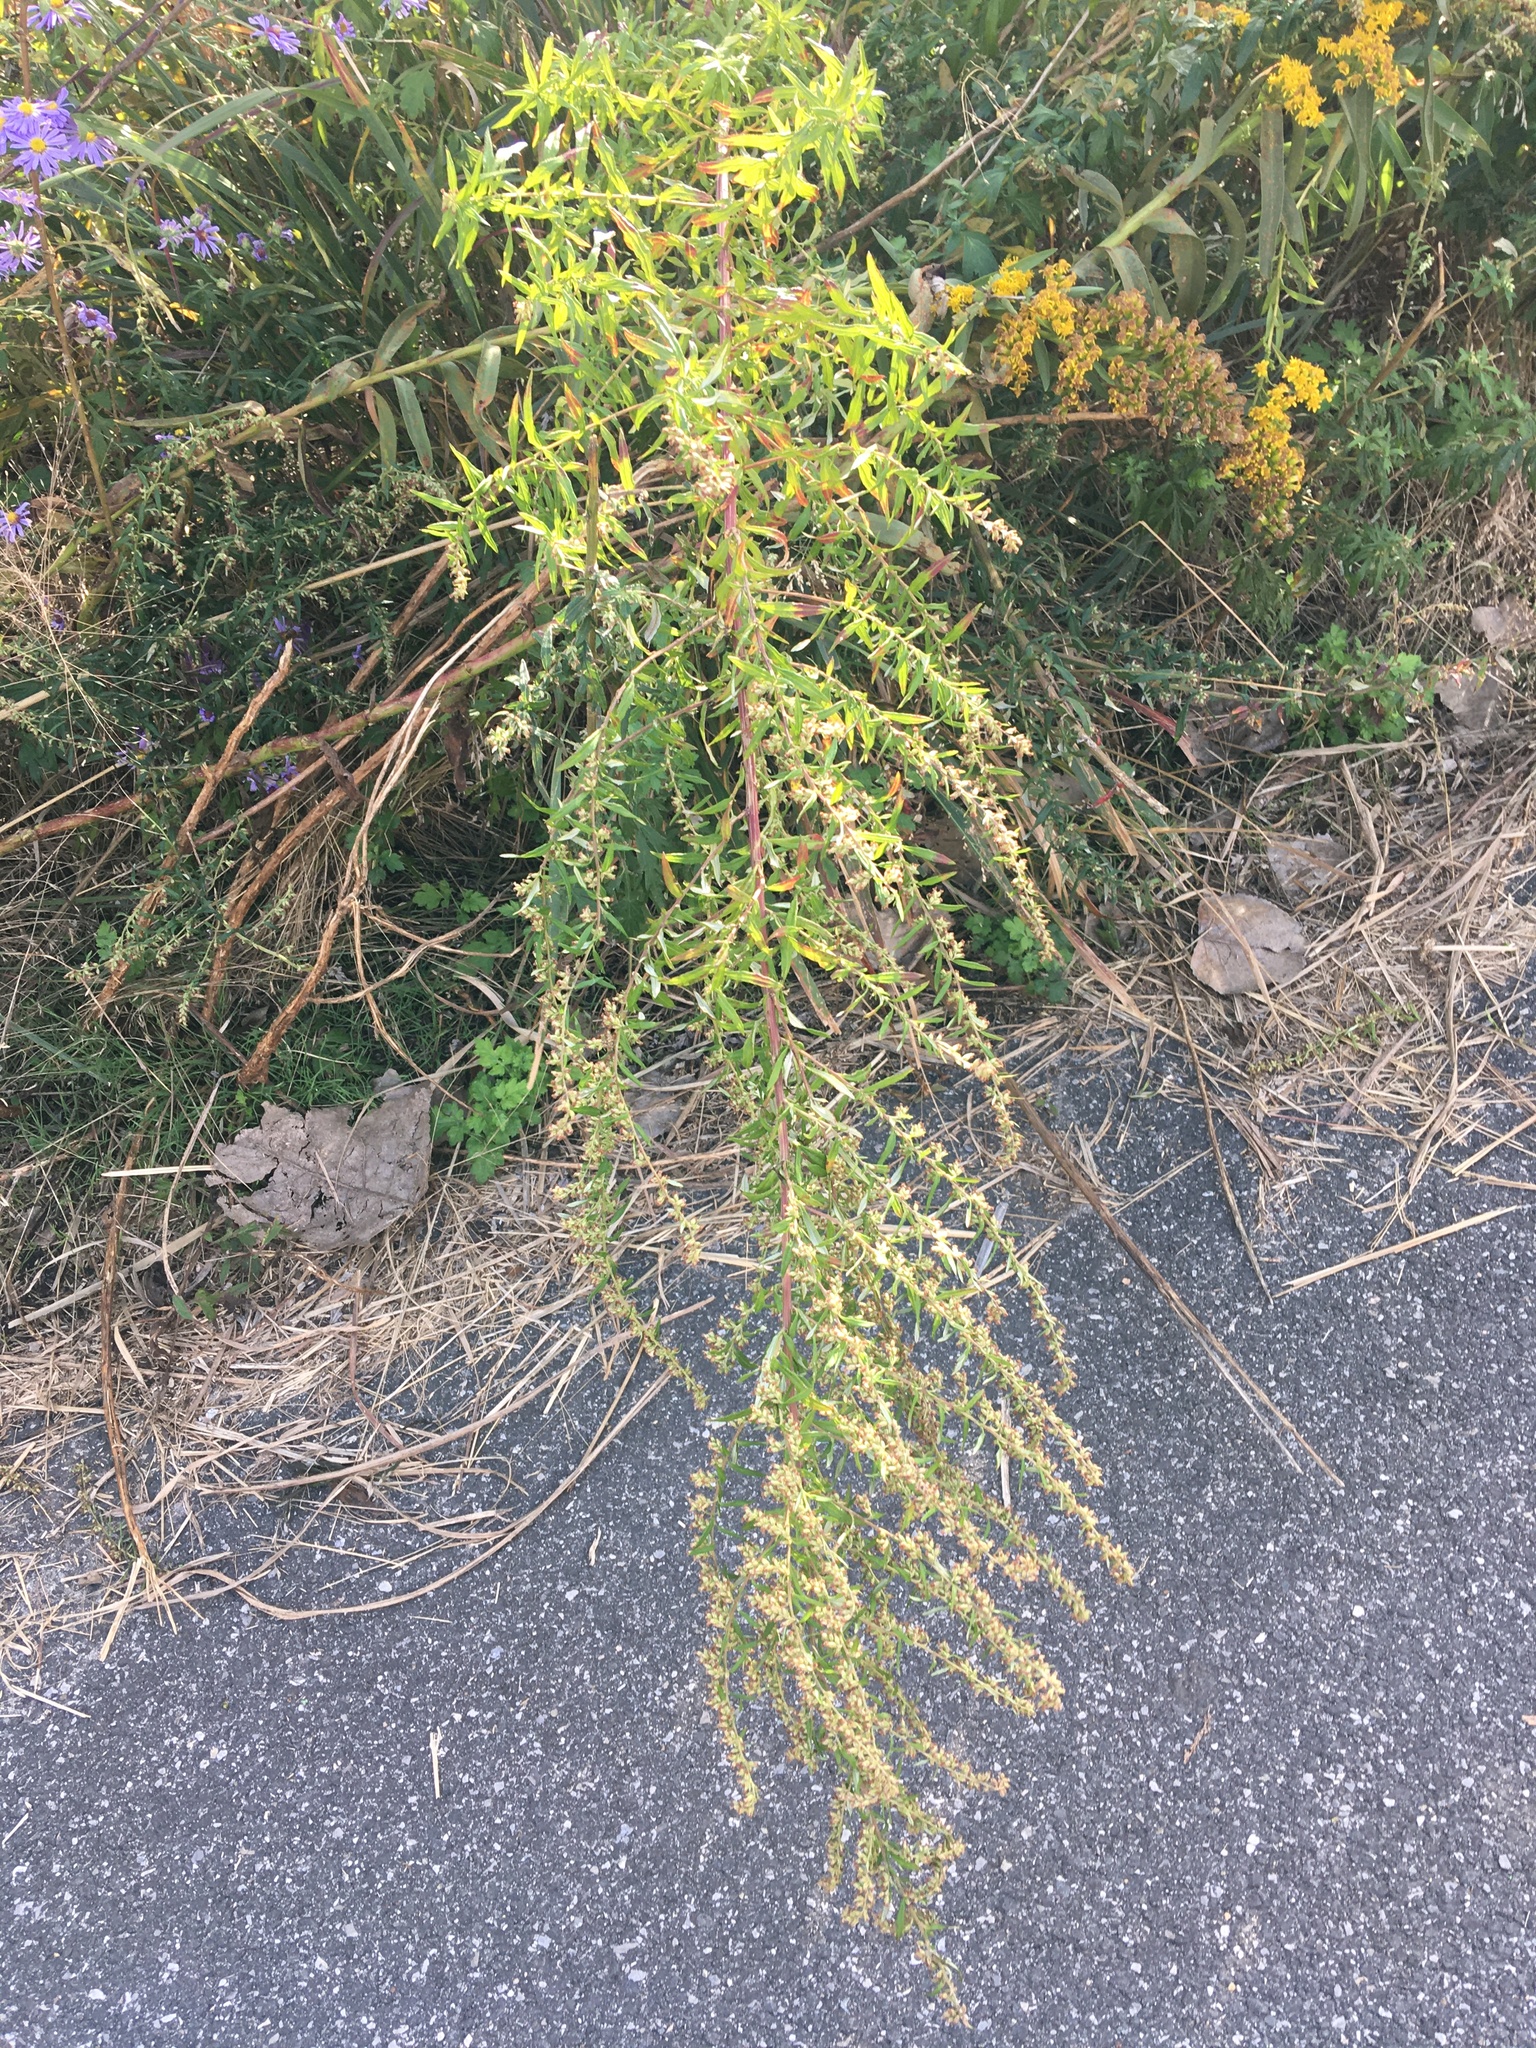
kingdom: Plantae
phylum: Tracheophyta
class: Magnoliopsida
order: Asterales
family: Asteraceae
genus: Artemisia
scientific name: Artemisia vulgaris
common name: Mugwort
